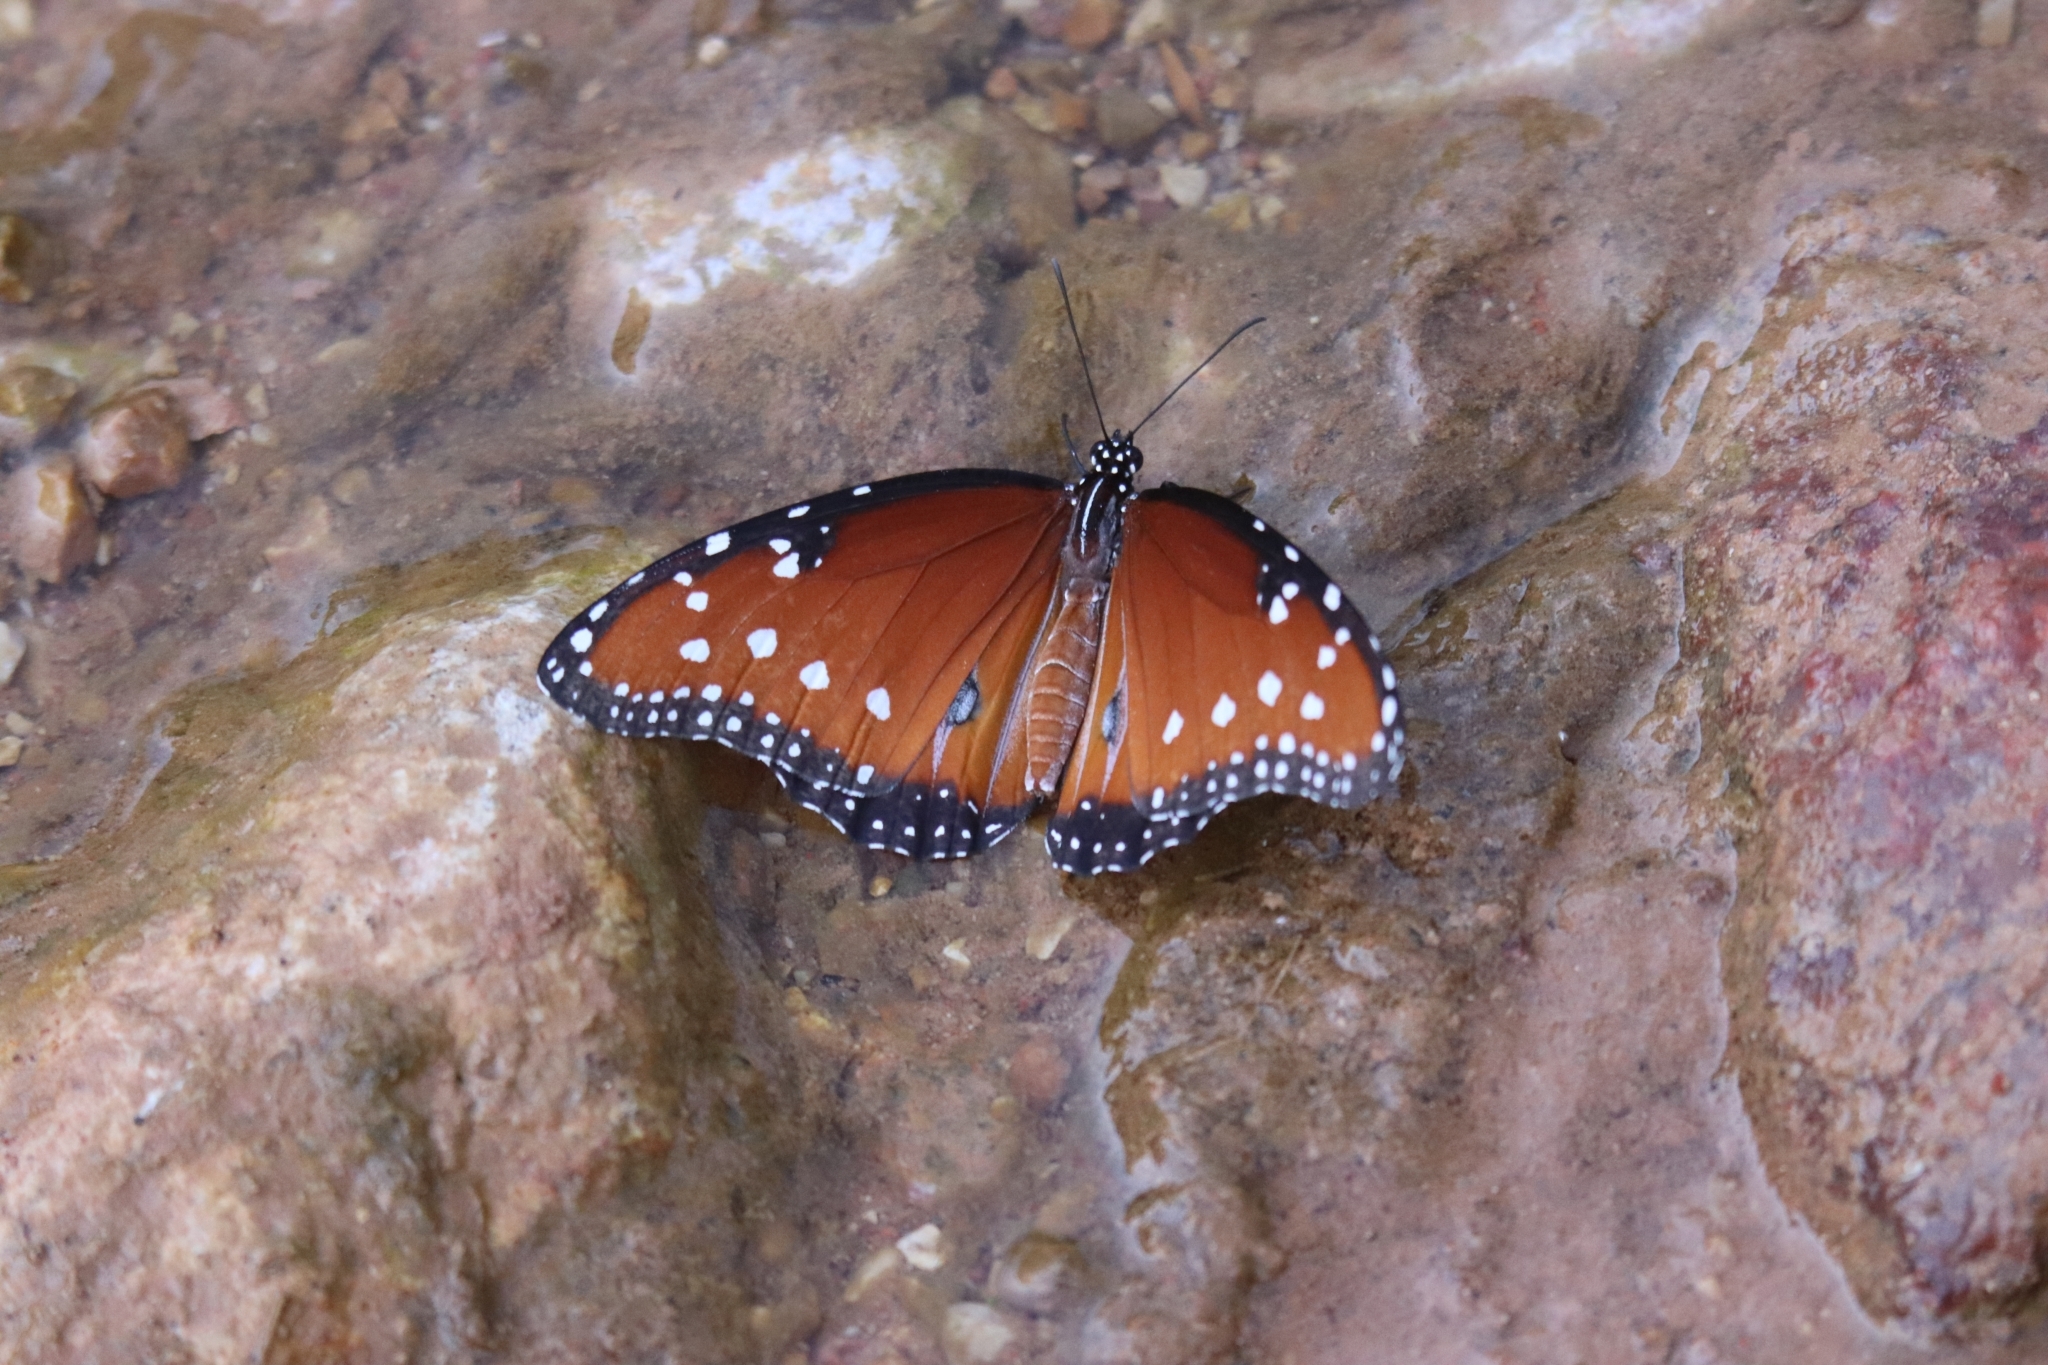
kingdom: Animalia
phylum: Arthropoda
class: Insecta
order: Lepidoptera
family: Nymphalidae
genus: Danaus
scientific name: Danaus gilippus
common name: Queen
